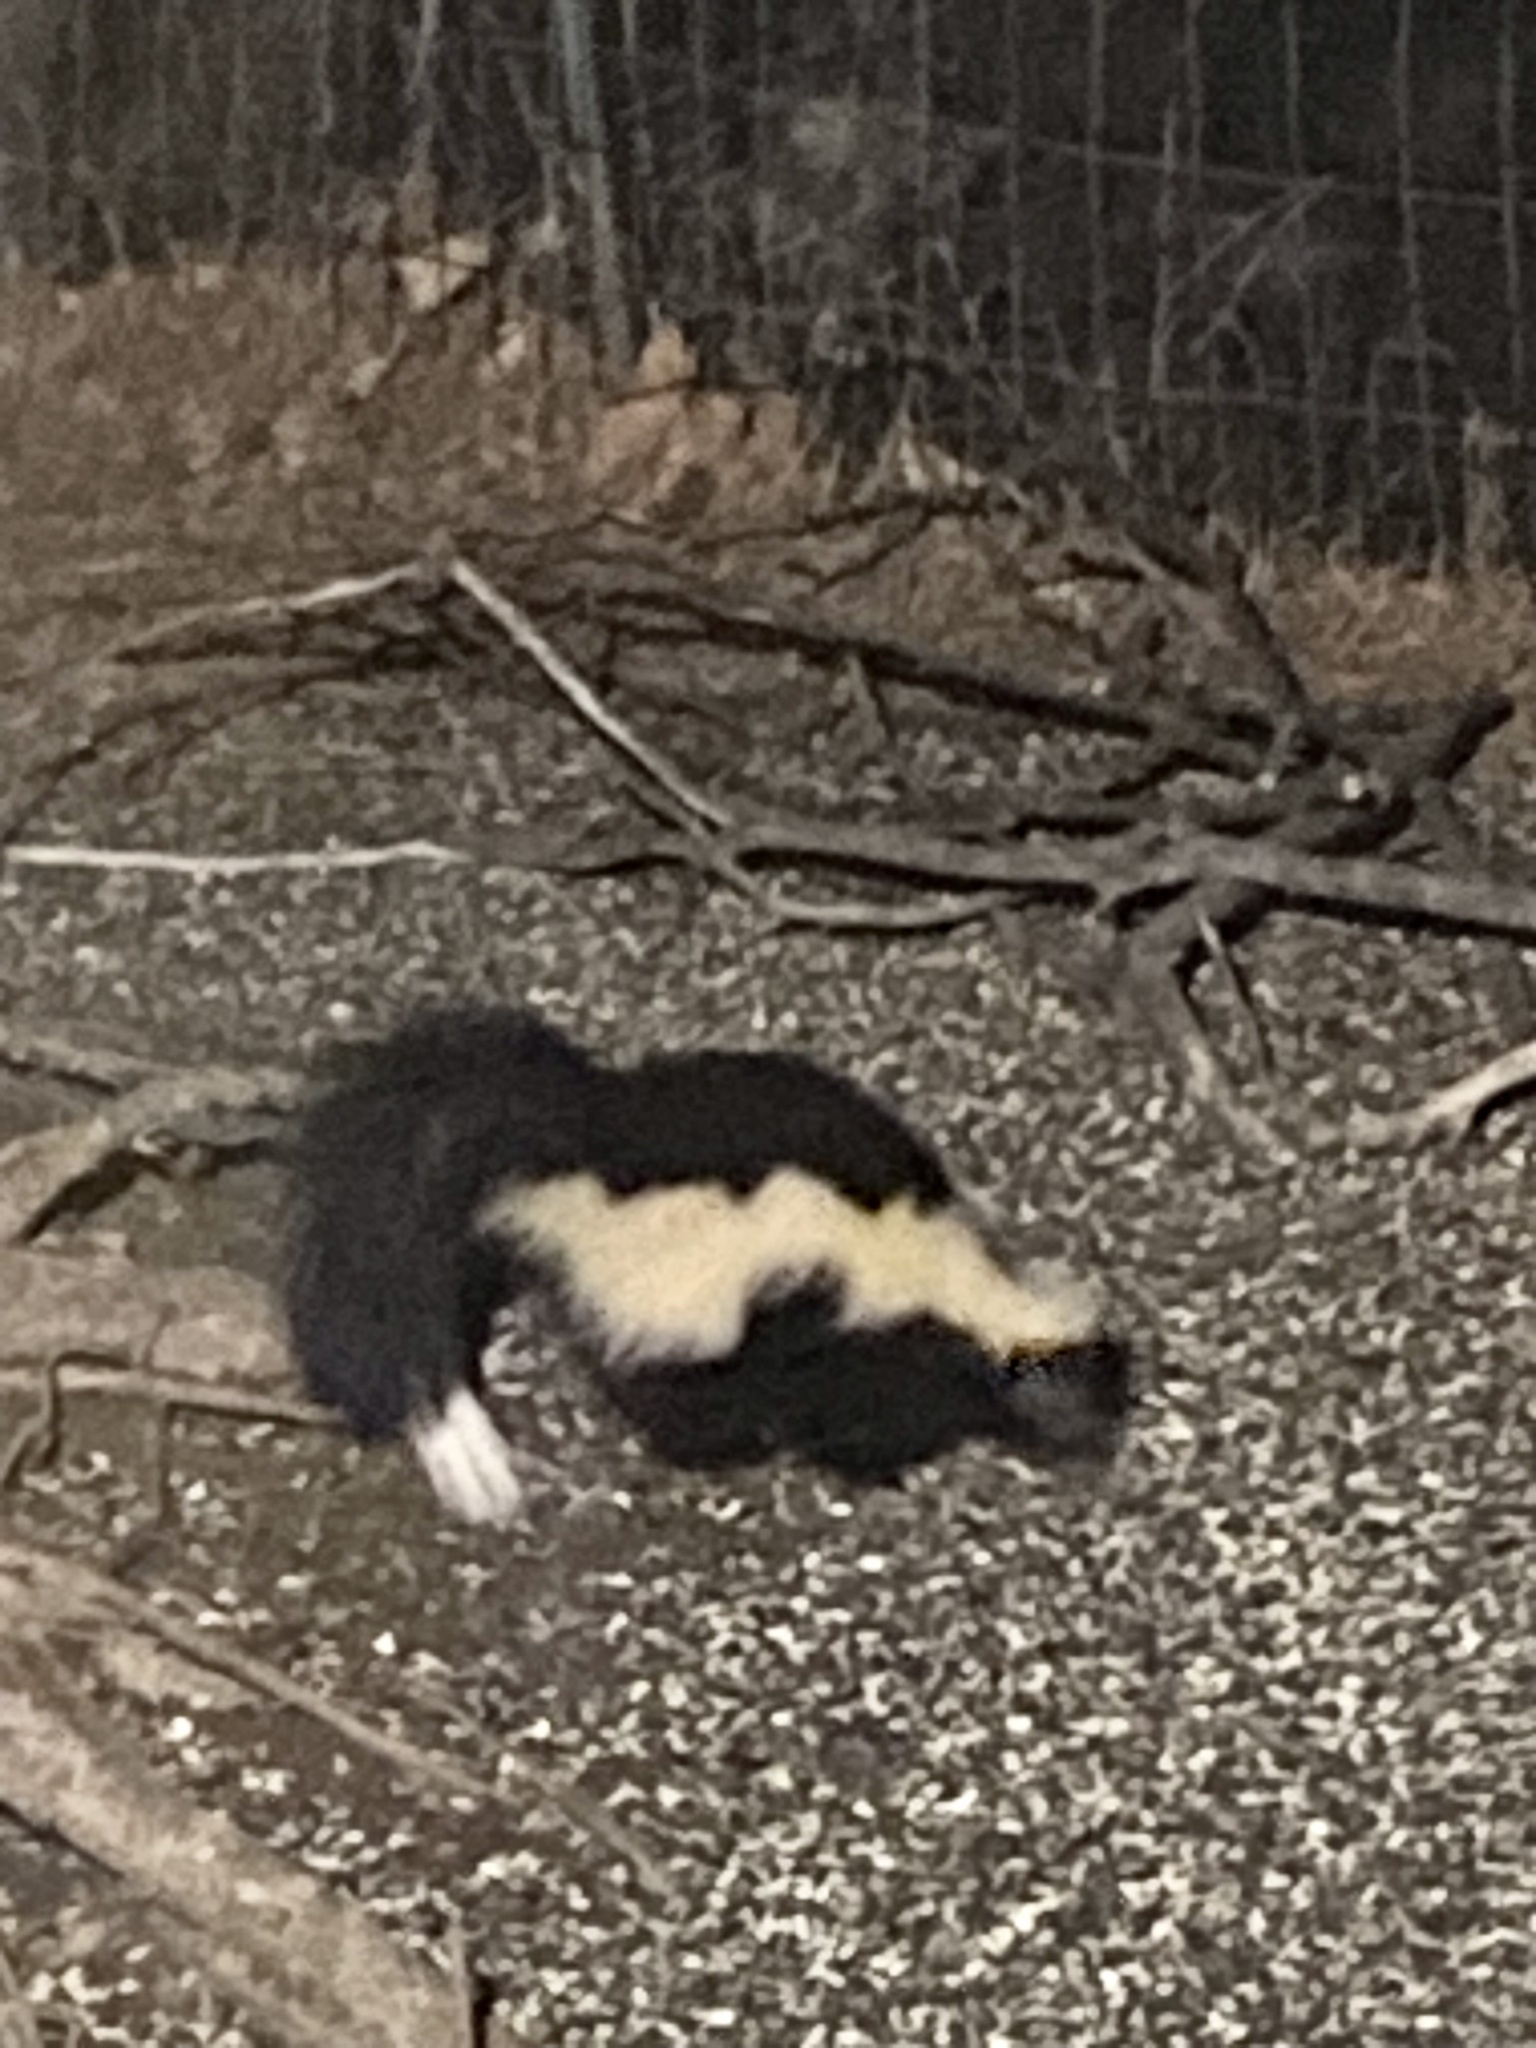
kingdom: Animalia
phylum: Chordata
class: Mammalia
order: Carnivora
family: Mephitidae
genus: Mephitis
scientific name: Mephitis mephitis
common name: Striped skunk
